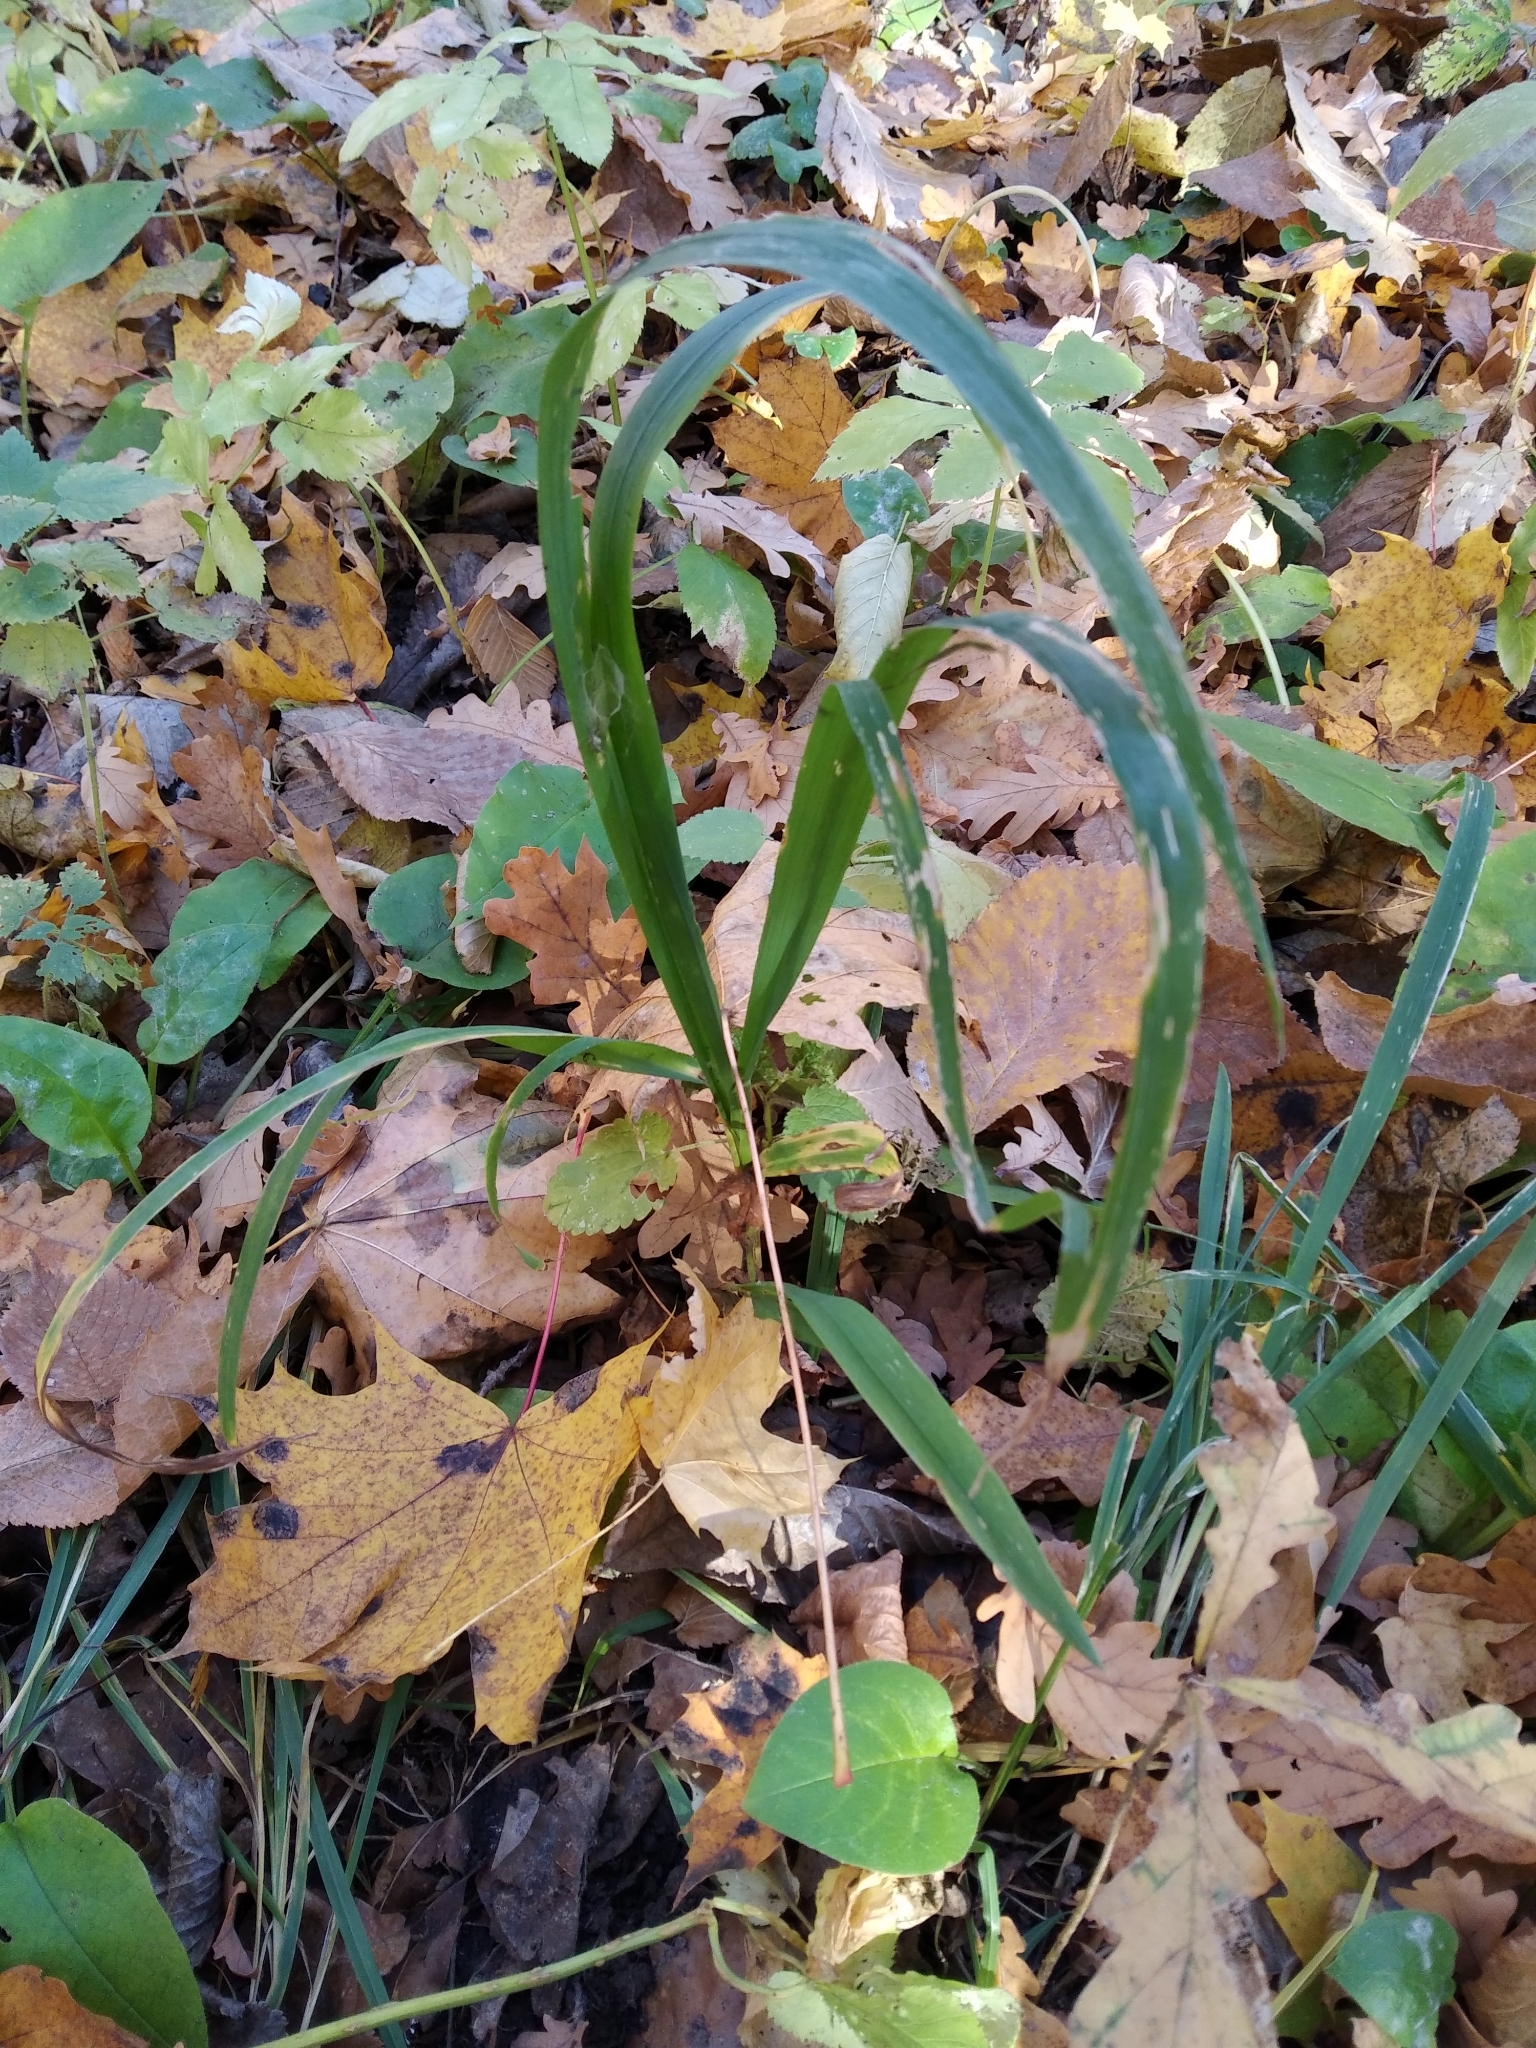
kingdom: Plantae
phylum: Tracheophyta
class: Liliopsida
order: Poales
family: Poaceae
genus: Milium
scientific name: Milium effusum
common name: Wood millet
